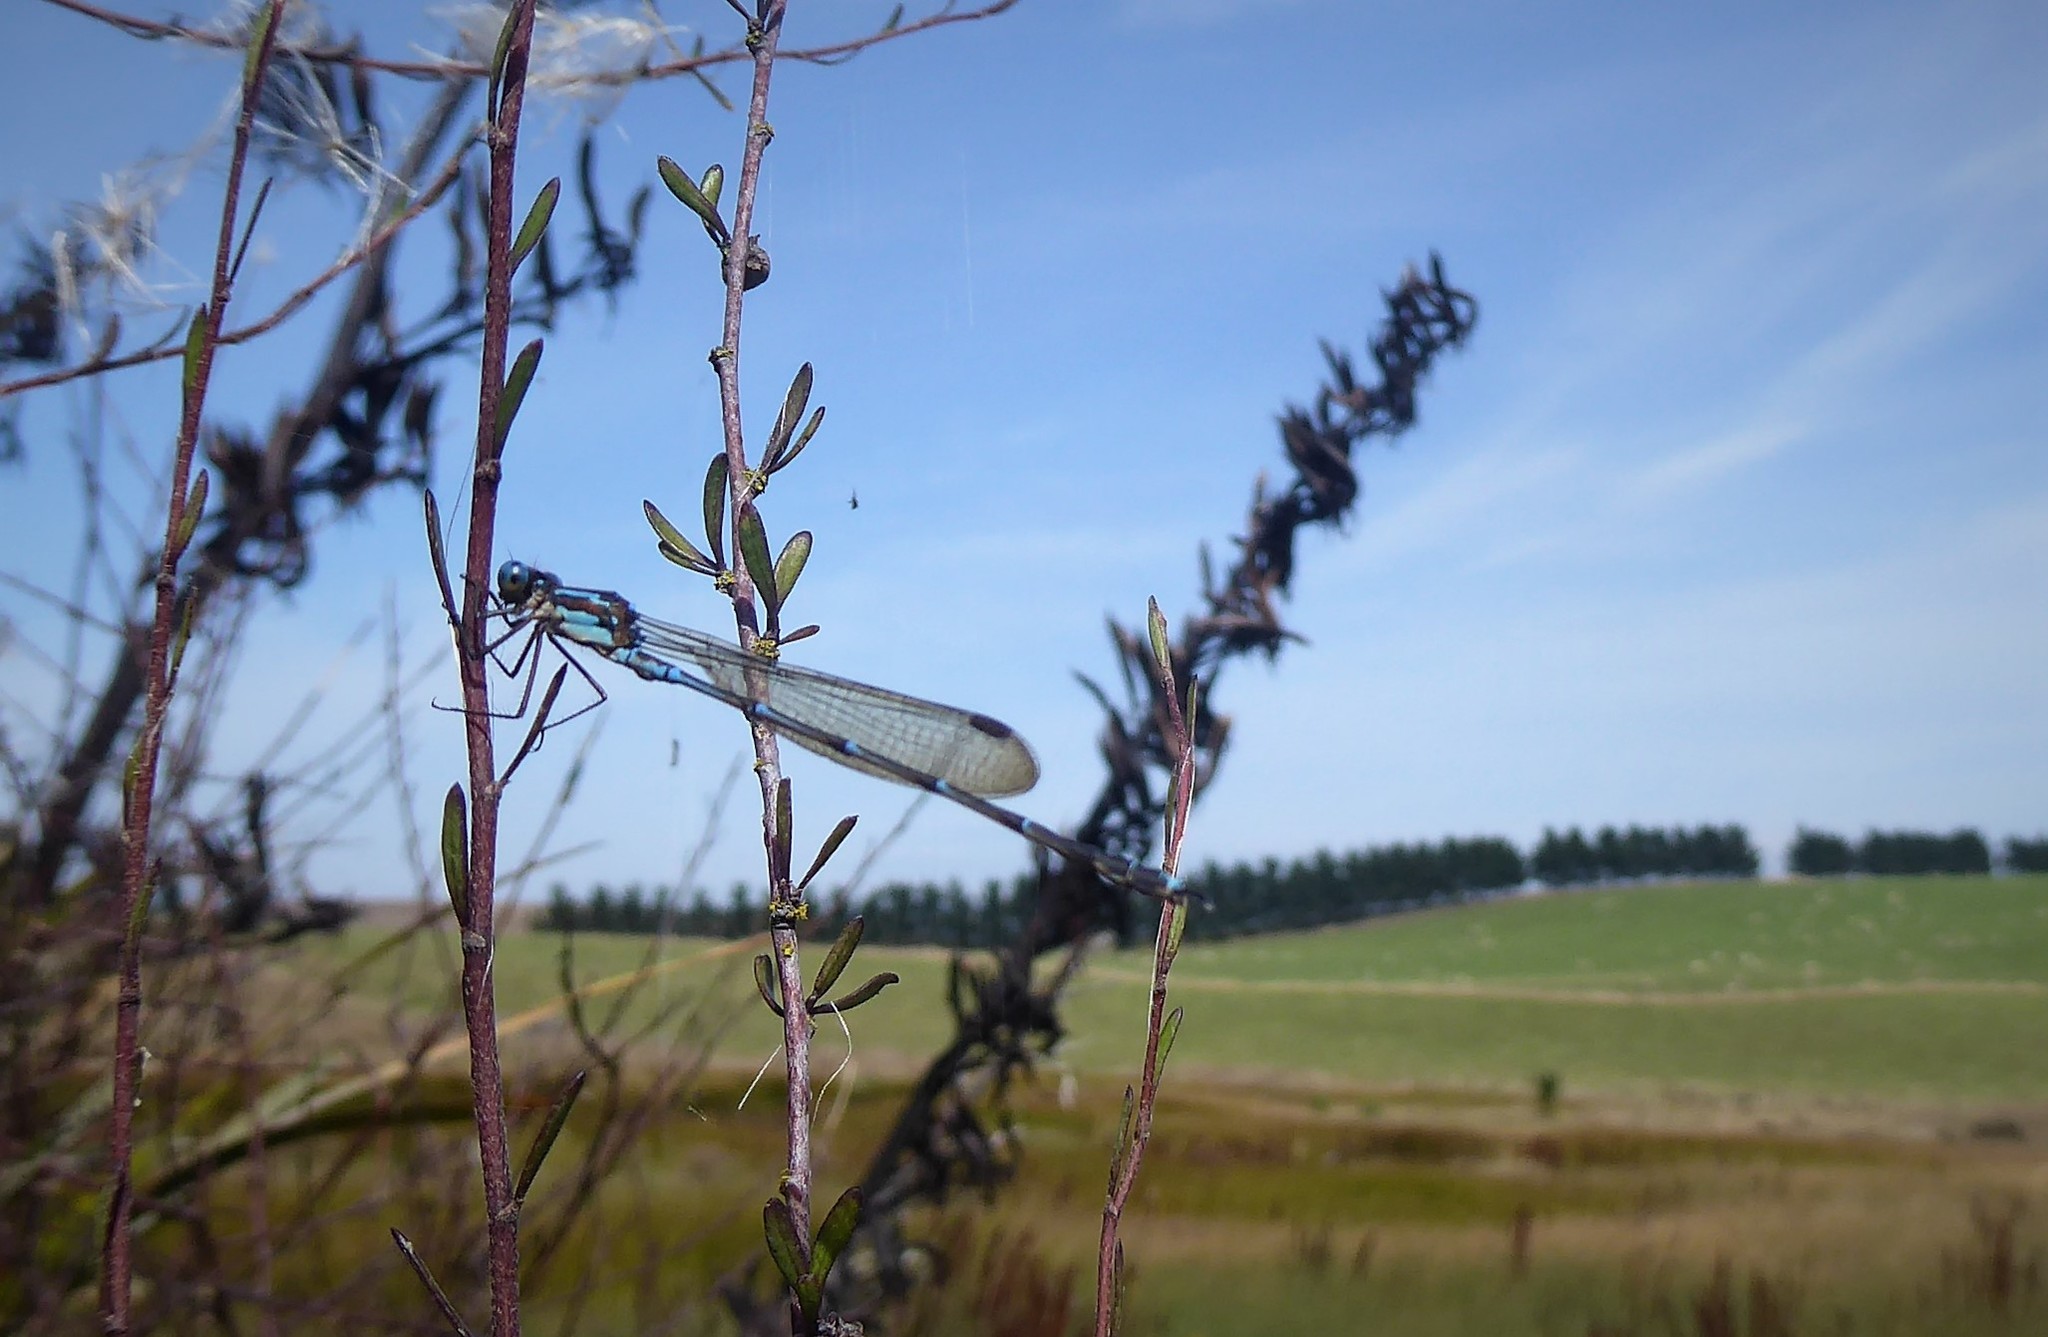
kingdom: Animalia
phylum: Arthropoda
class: Insecta
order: Odonata
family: Lestidae
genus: Austrolestes
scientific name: Austrolestes colensonis
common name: Blue damselfly
